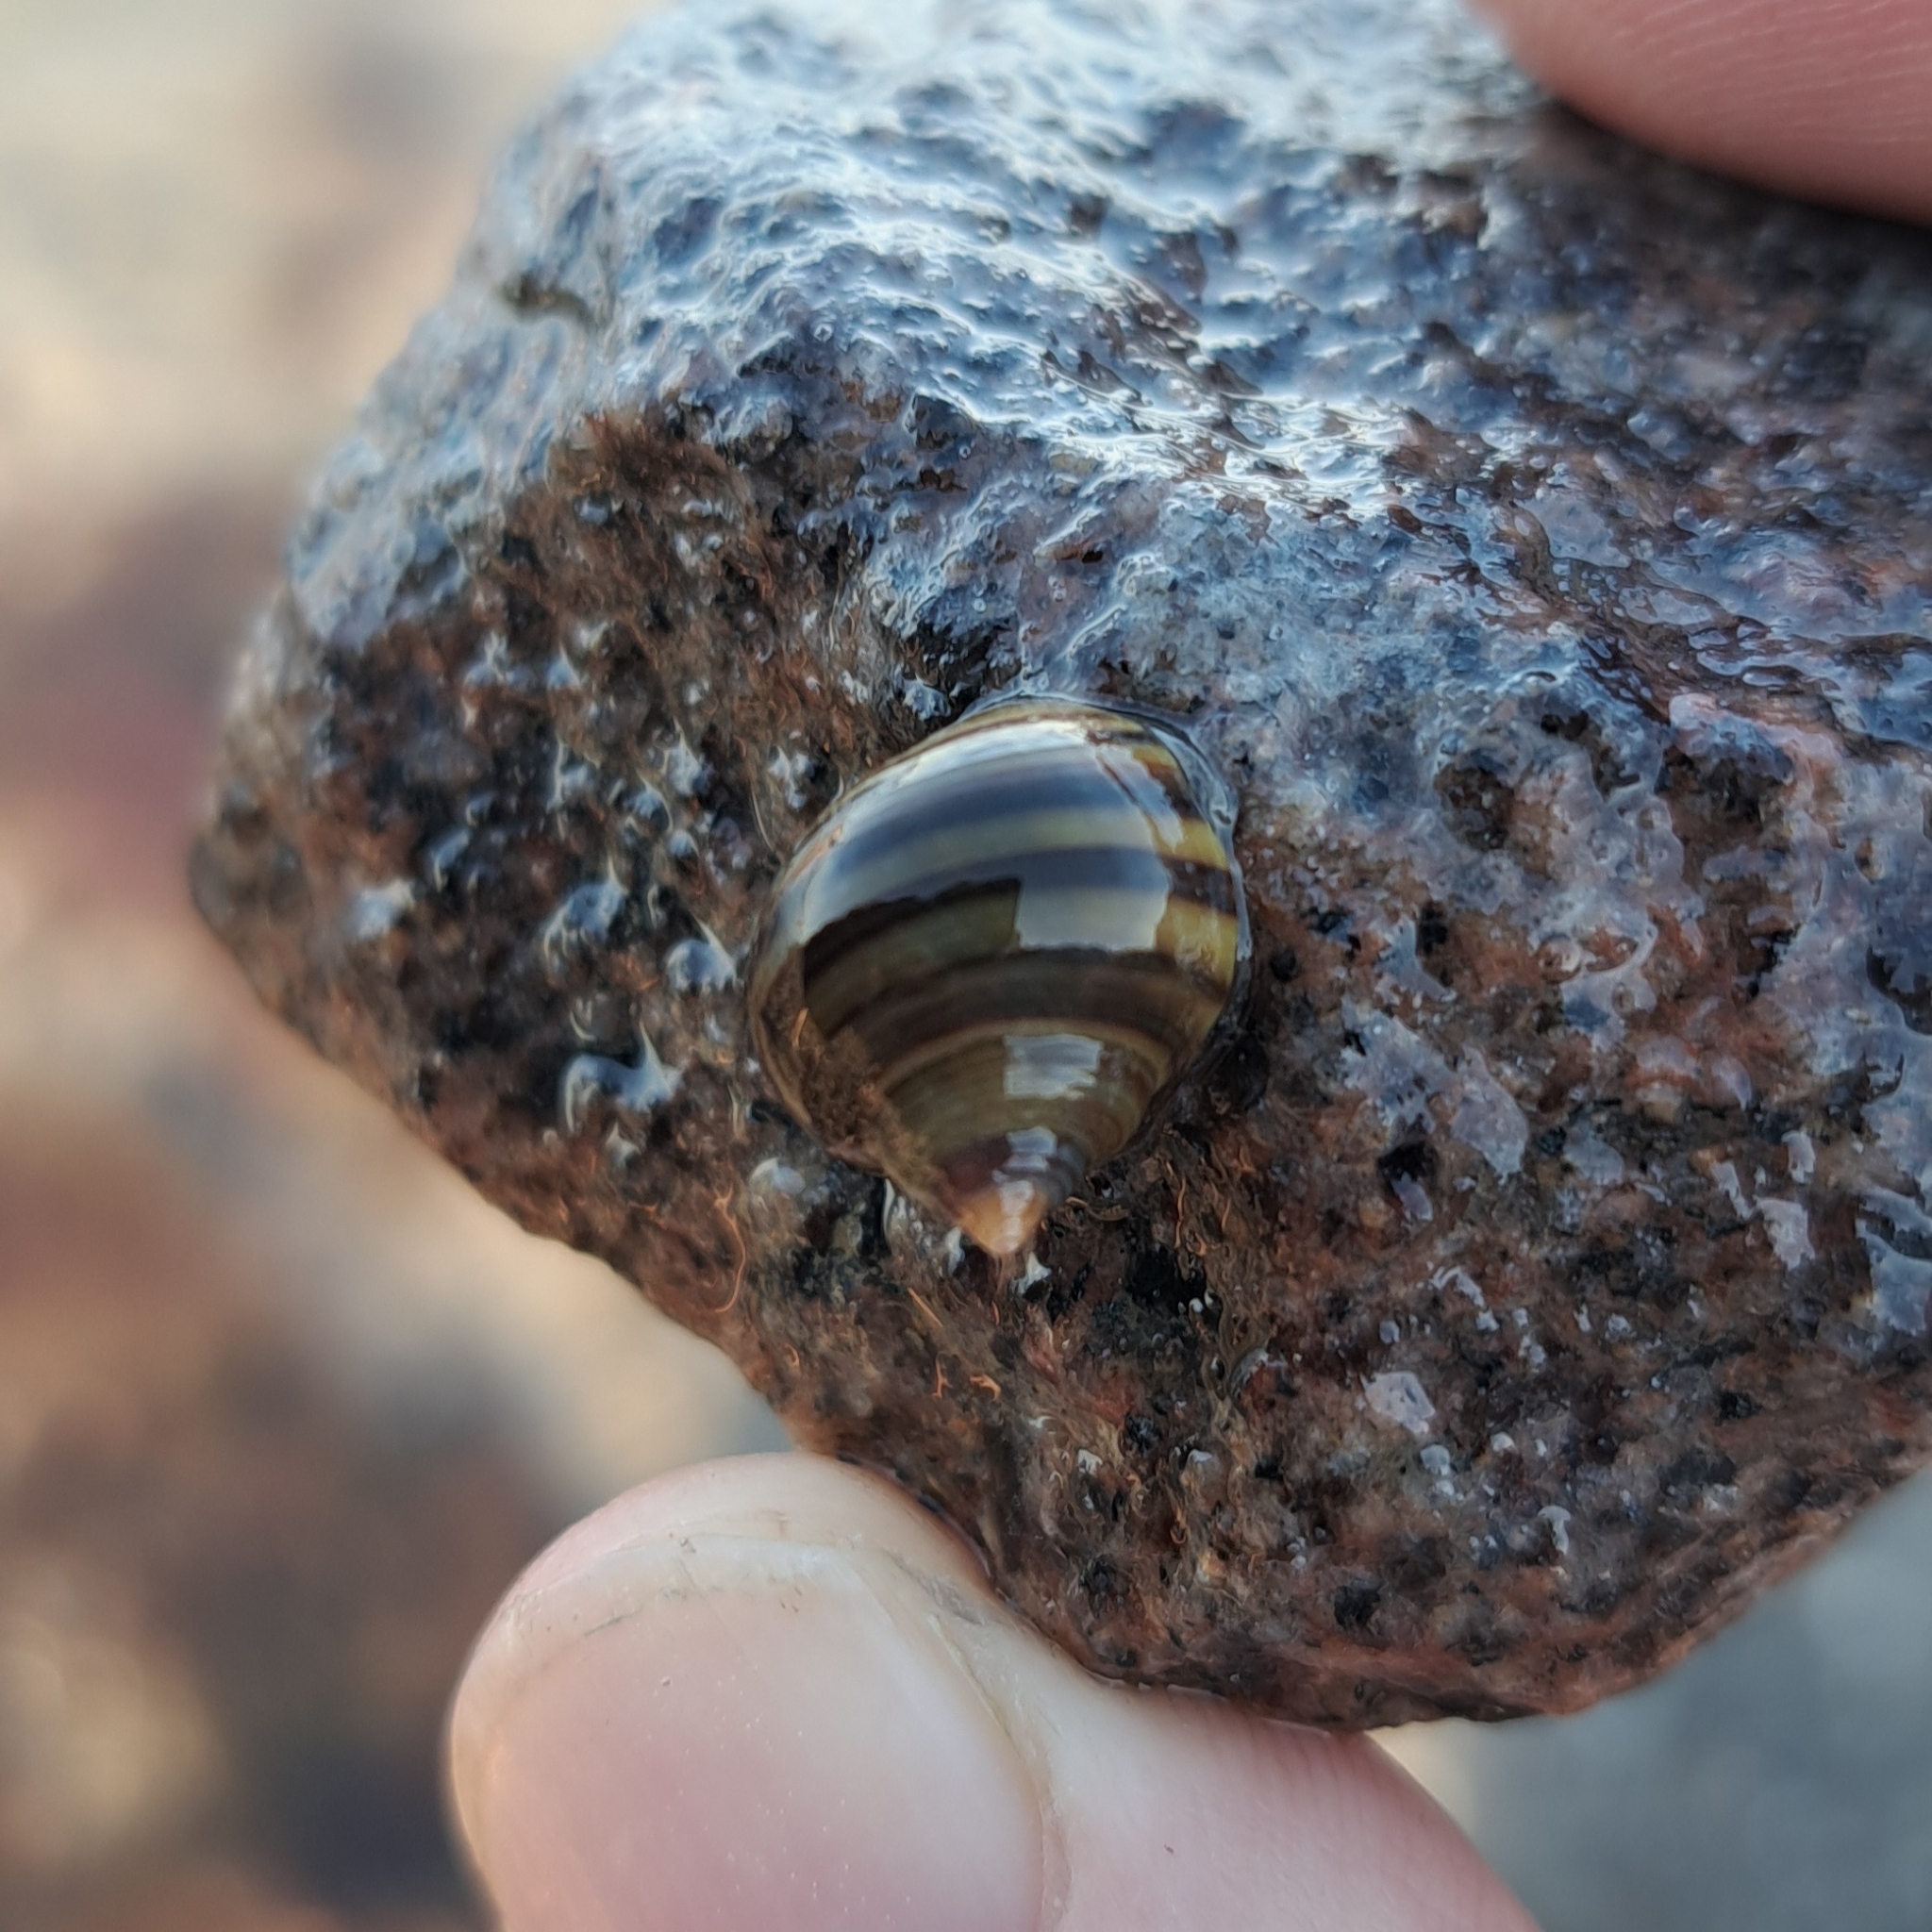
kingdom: Animalia
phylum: Mollusca
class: Gastropoda
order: Littorinimorpha
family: Littorinidae
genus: Littorina
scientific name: Littorina littorea
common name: Common periwinkle
